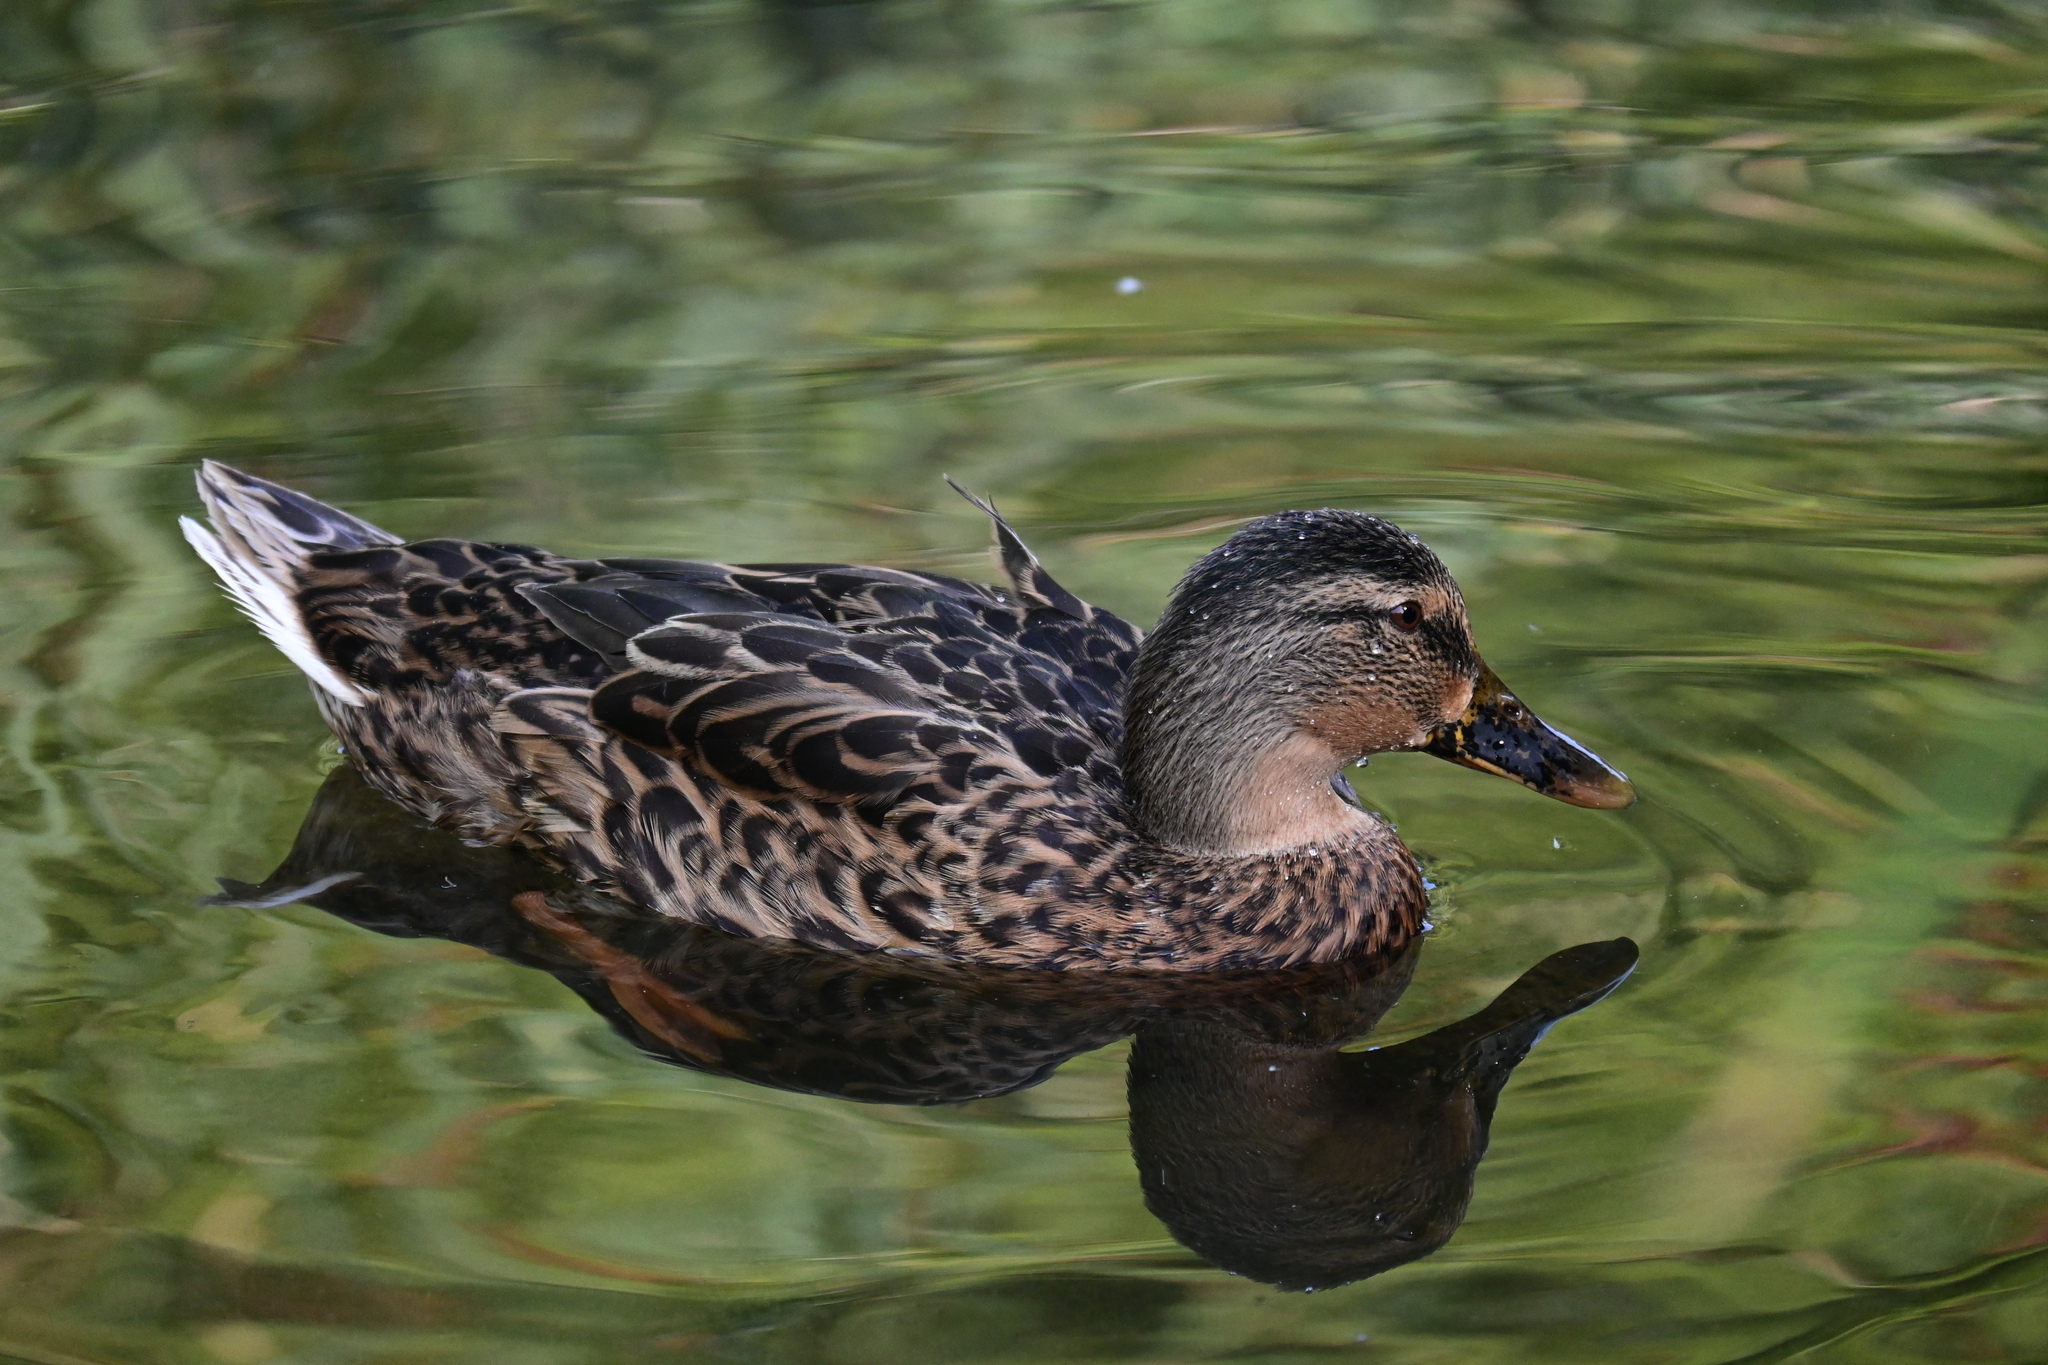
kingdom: Animalia
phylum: Chordata
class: Aves
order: Anseriformes
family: Anatidae
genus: Anas
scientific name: Anas platyrhynchos
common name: Mallard
